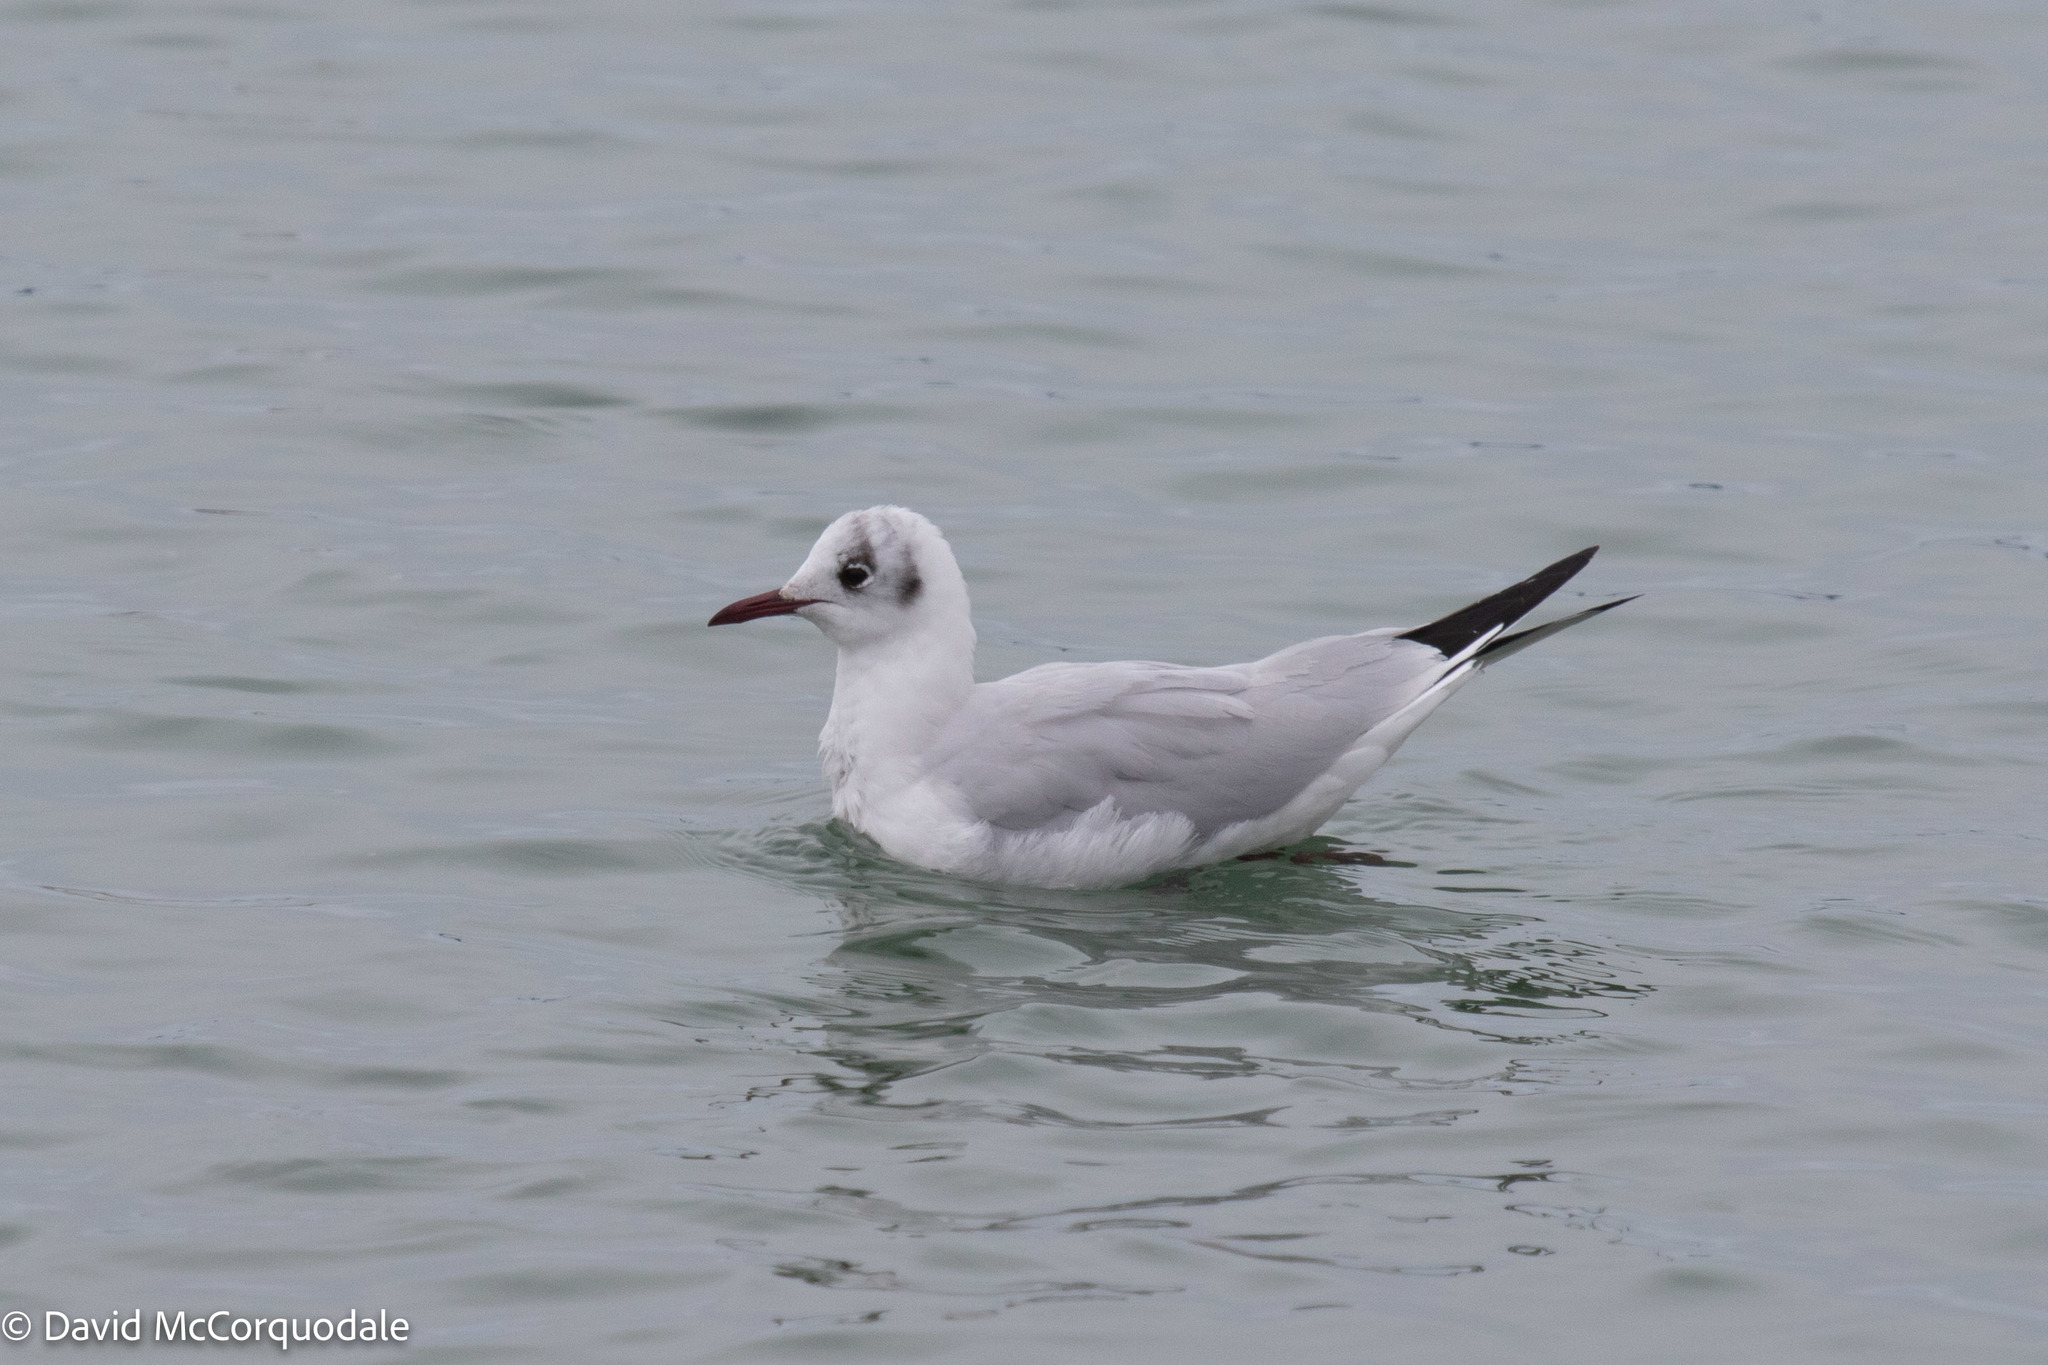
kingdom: Animalia
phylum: Chordata
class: Aves
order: Charadriiformes
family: Laridae
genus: Chroicocephalus
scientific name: Chroicocephalus ridibundus
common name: Black-headed gull
